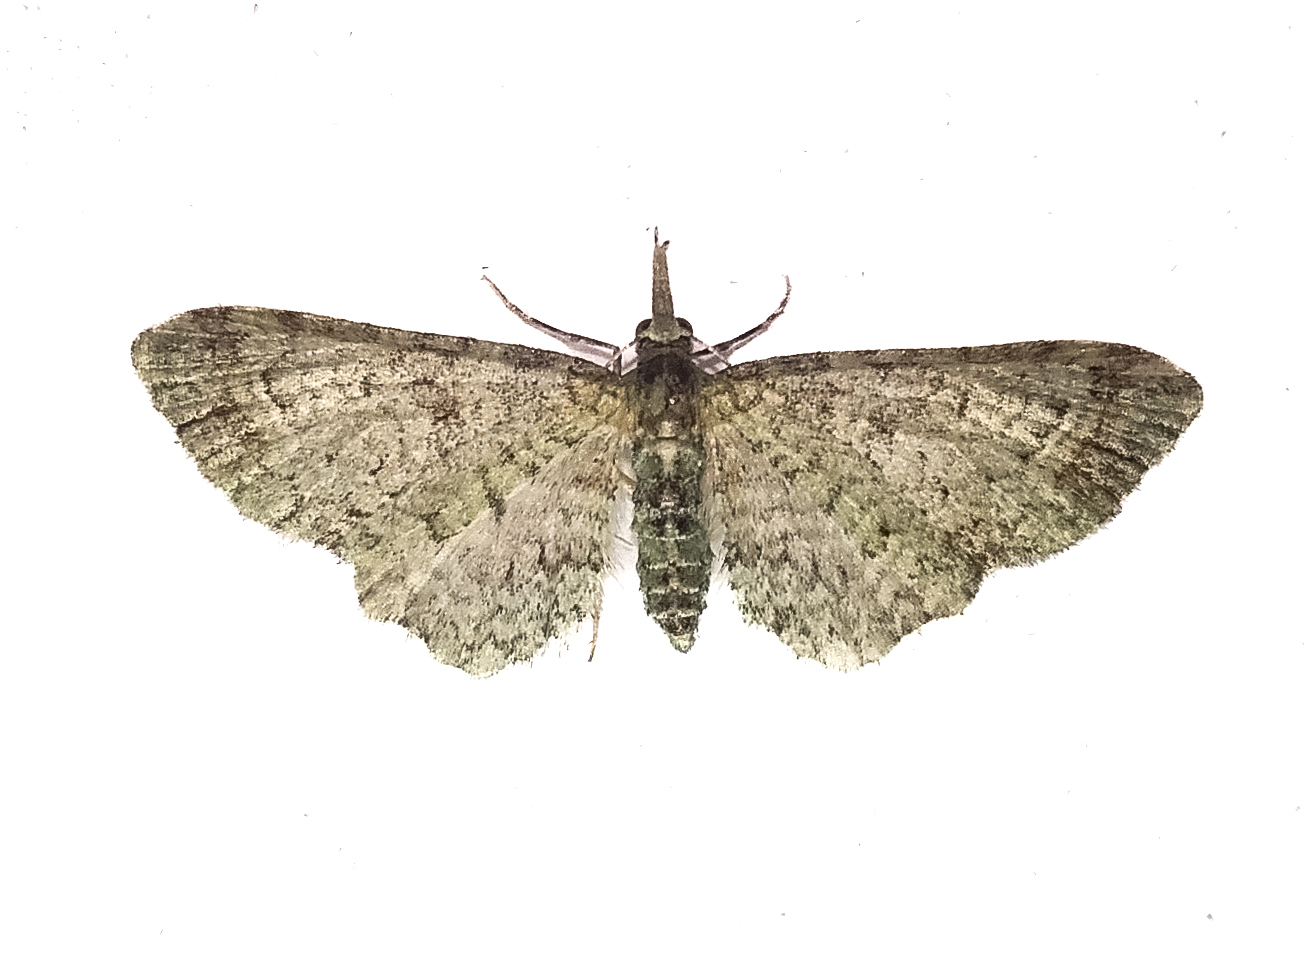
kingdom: Animalia
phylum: Arthropoda
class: Insecta
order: Lepidoptera
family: Geometridae
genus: Pasiphila
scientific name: Pasiphila plinthina
